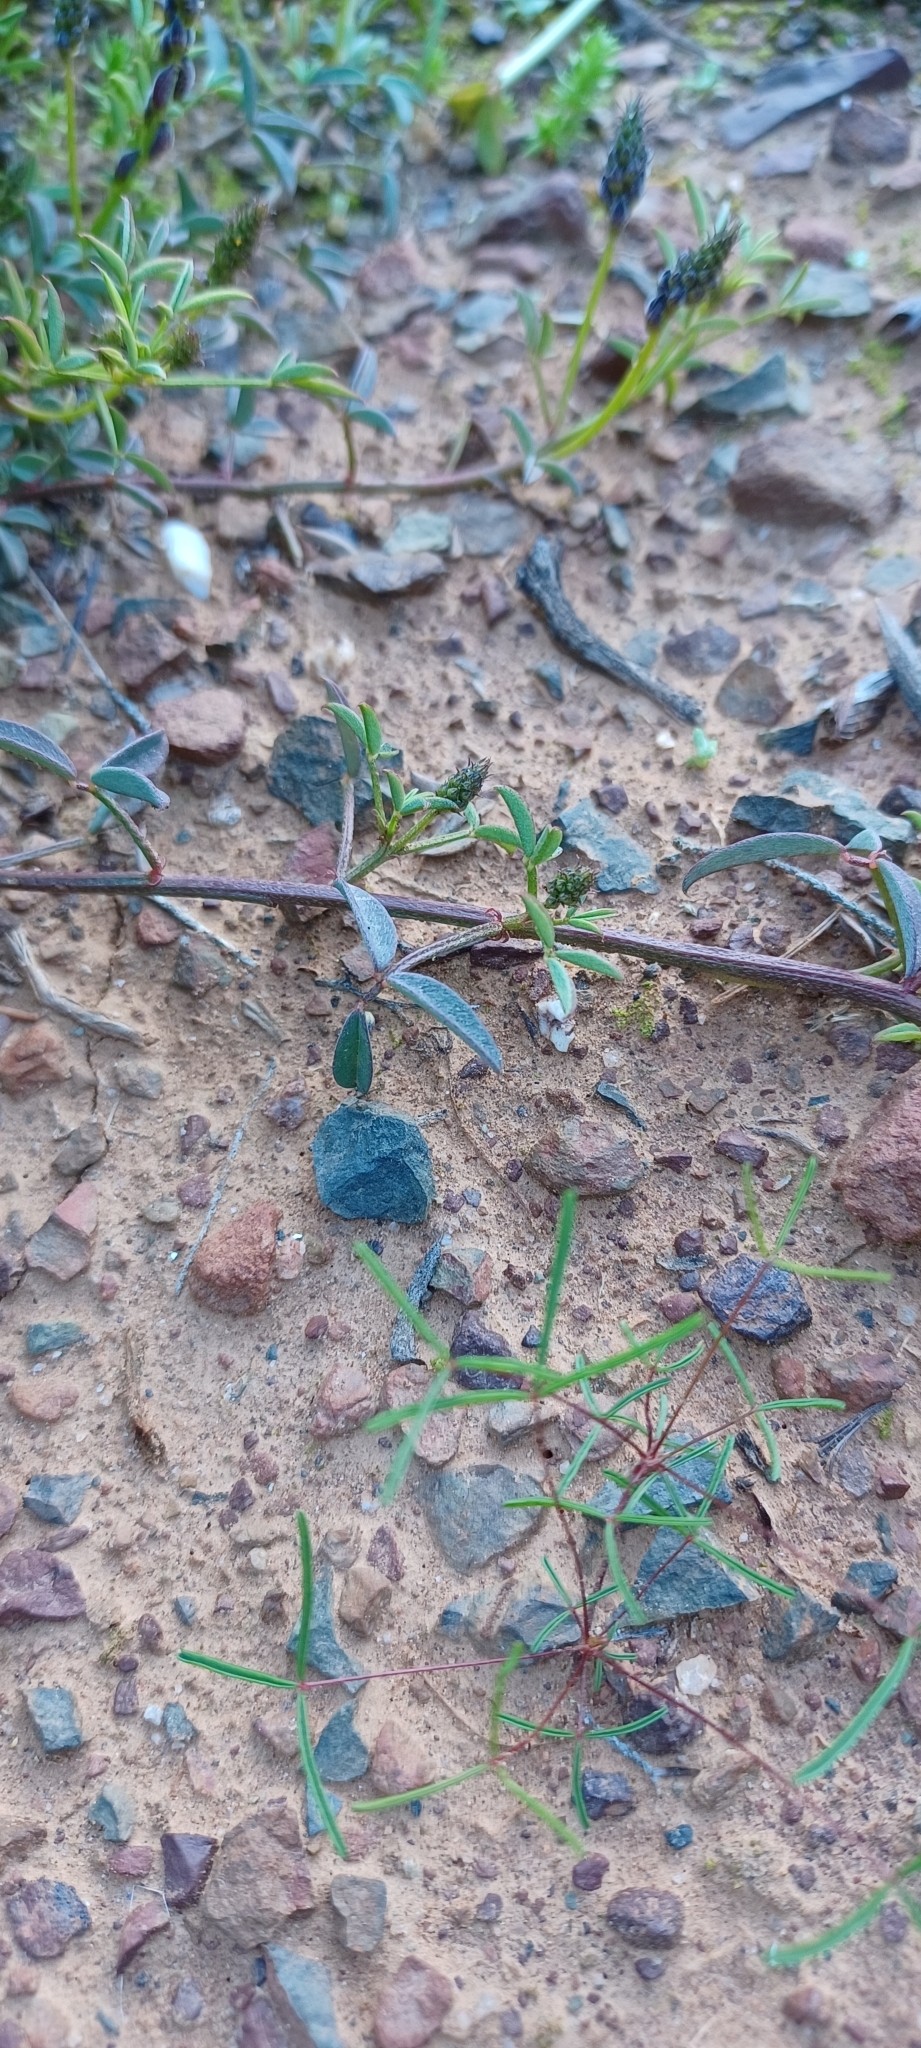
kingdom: Plantae
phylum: Tracheophyta
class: Magnoliopsida
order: Fabales
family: Fabaceae
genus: Indigofera
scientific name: Indigofera heterophylla
